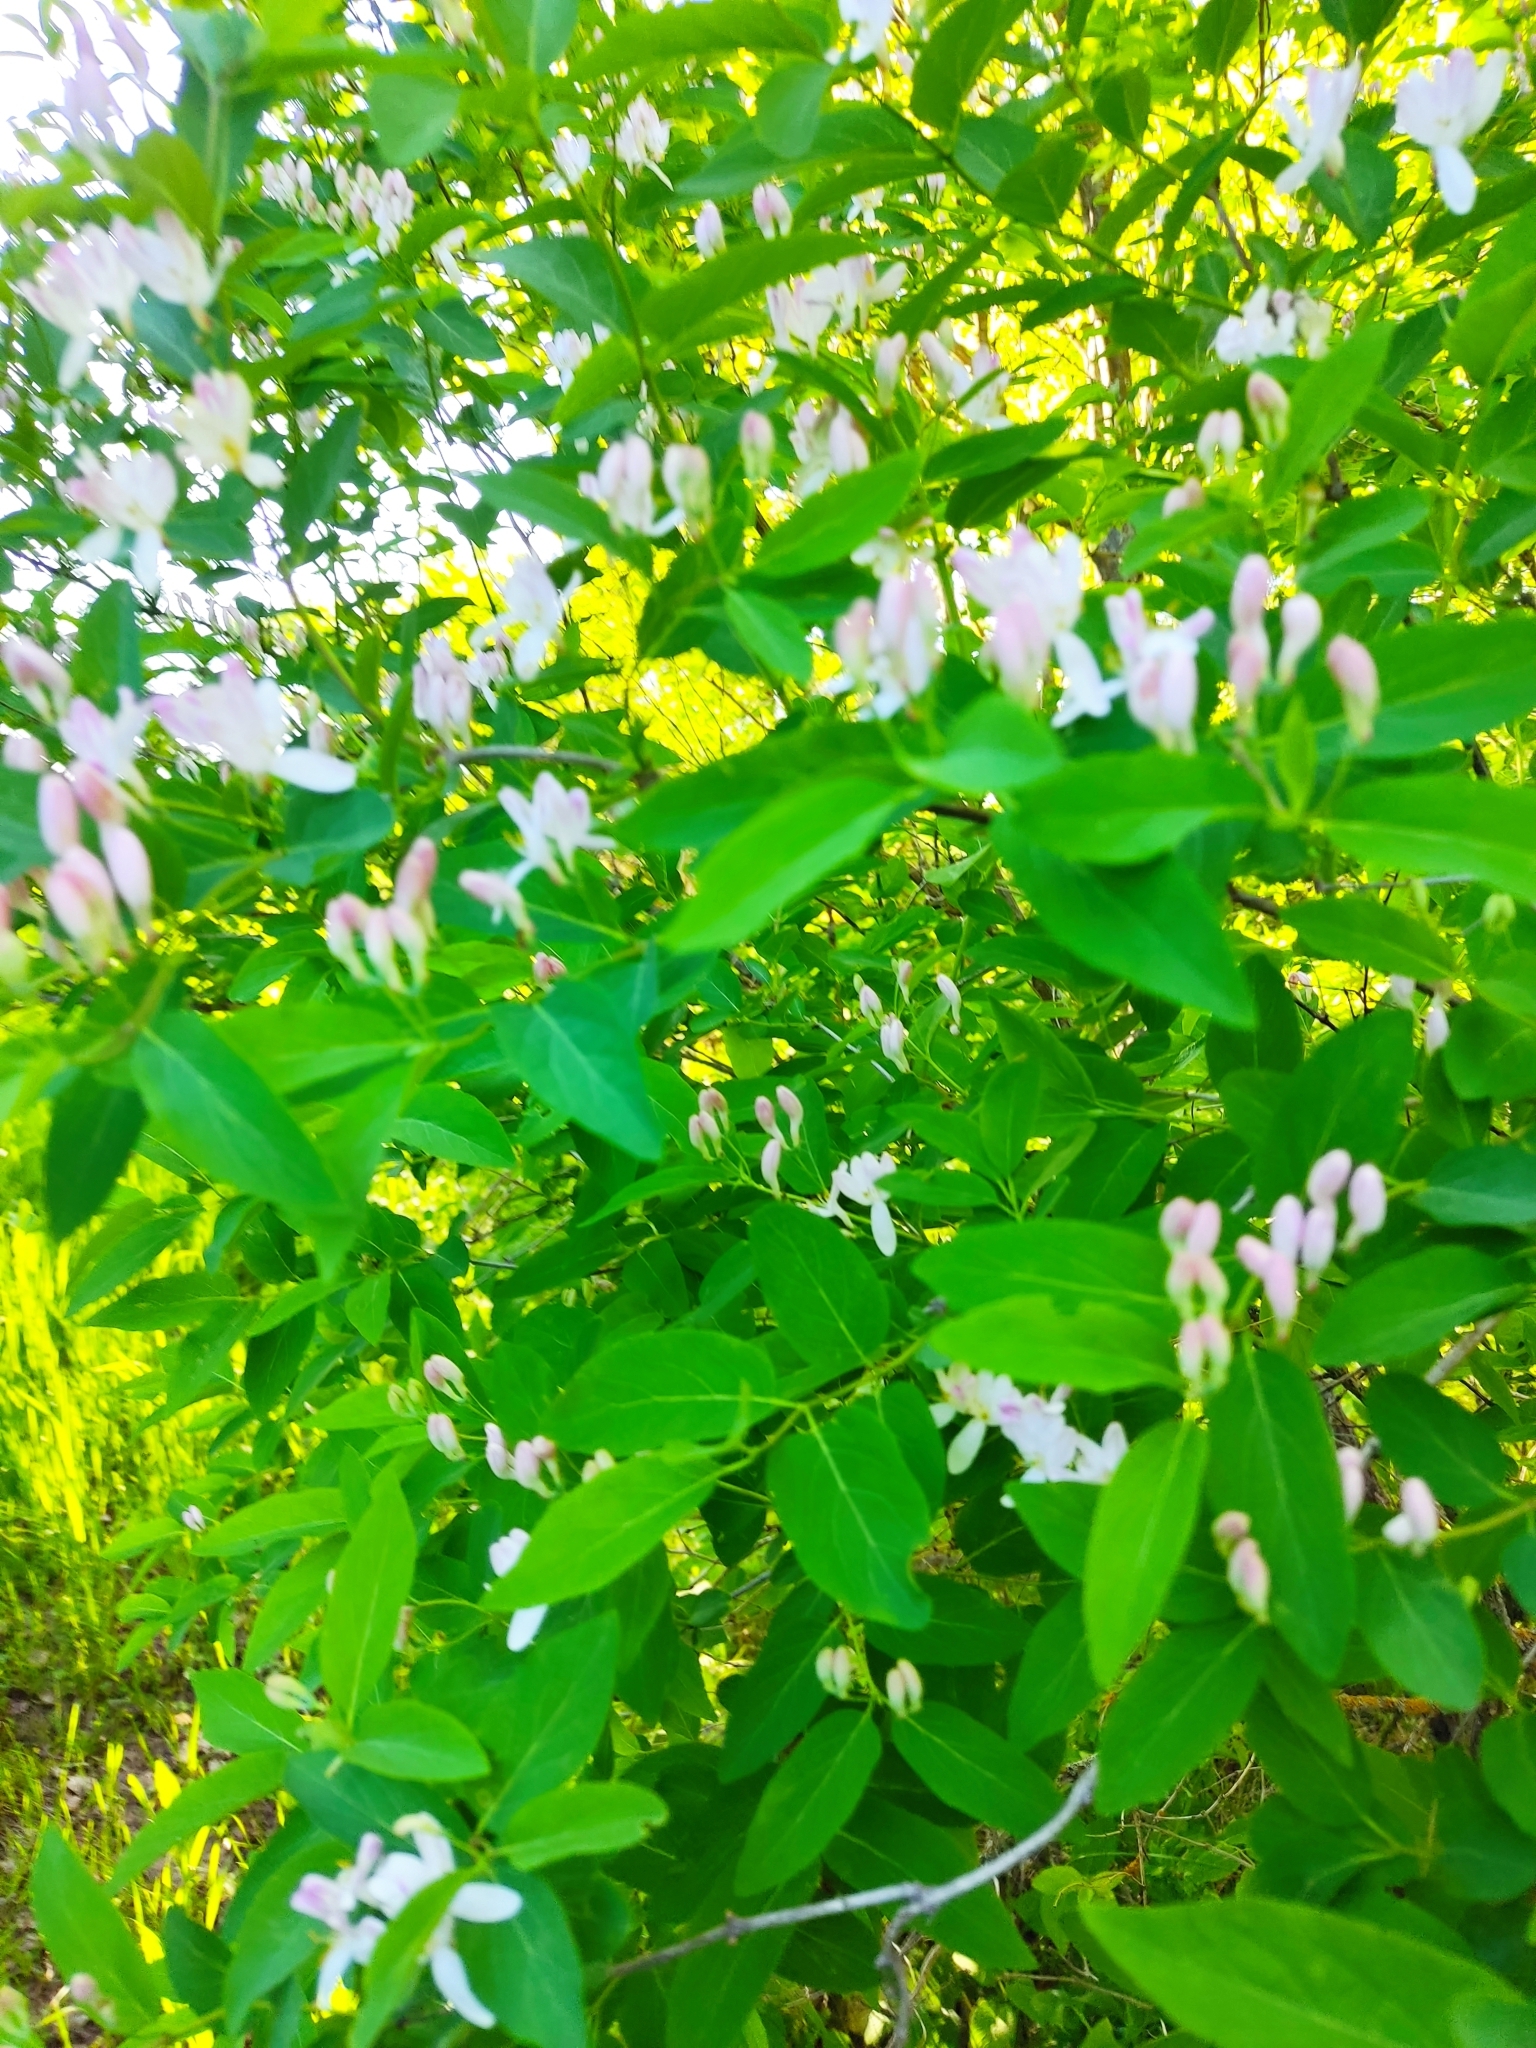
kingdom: Plantae
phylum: Tracheophyta
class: Magnoliopsida
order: Dipsacales
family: Caprifoliaceae
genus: Lonicera
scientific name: Lonicera tatarica
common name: Tatarian honeysuckle
